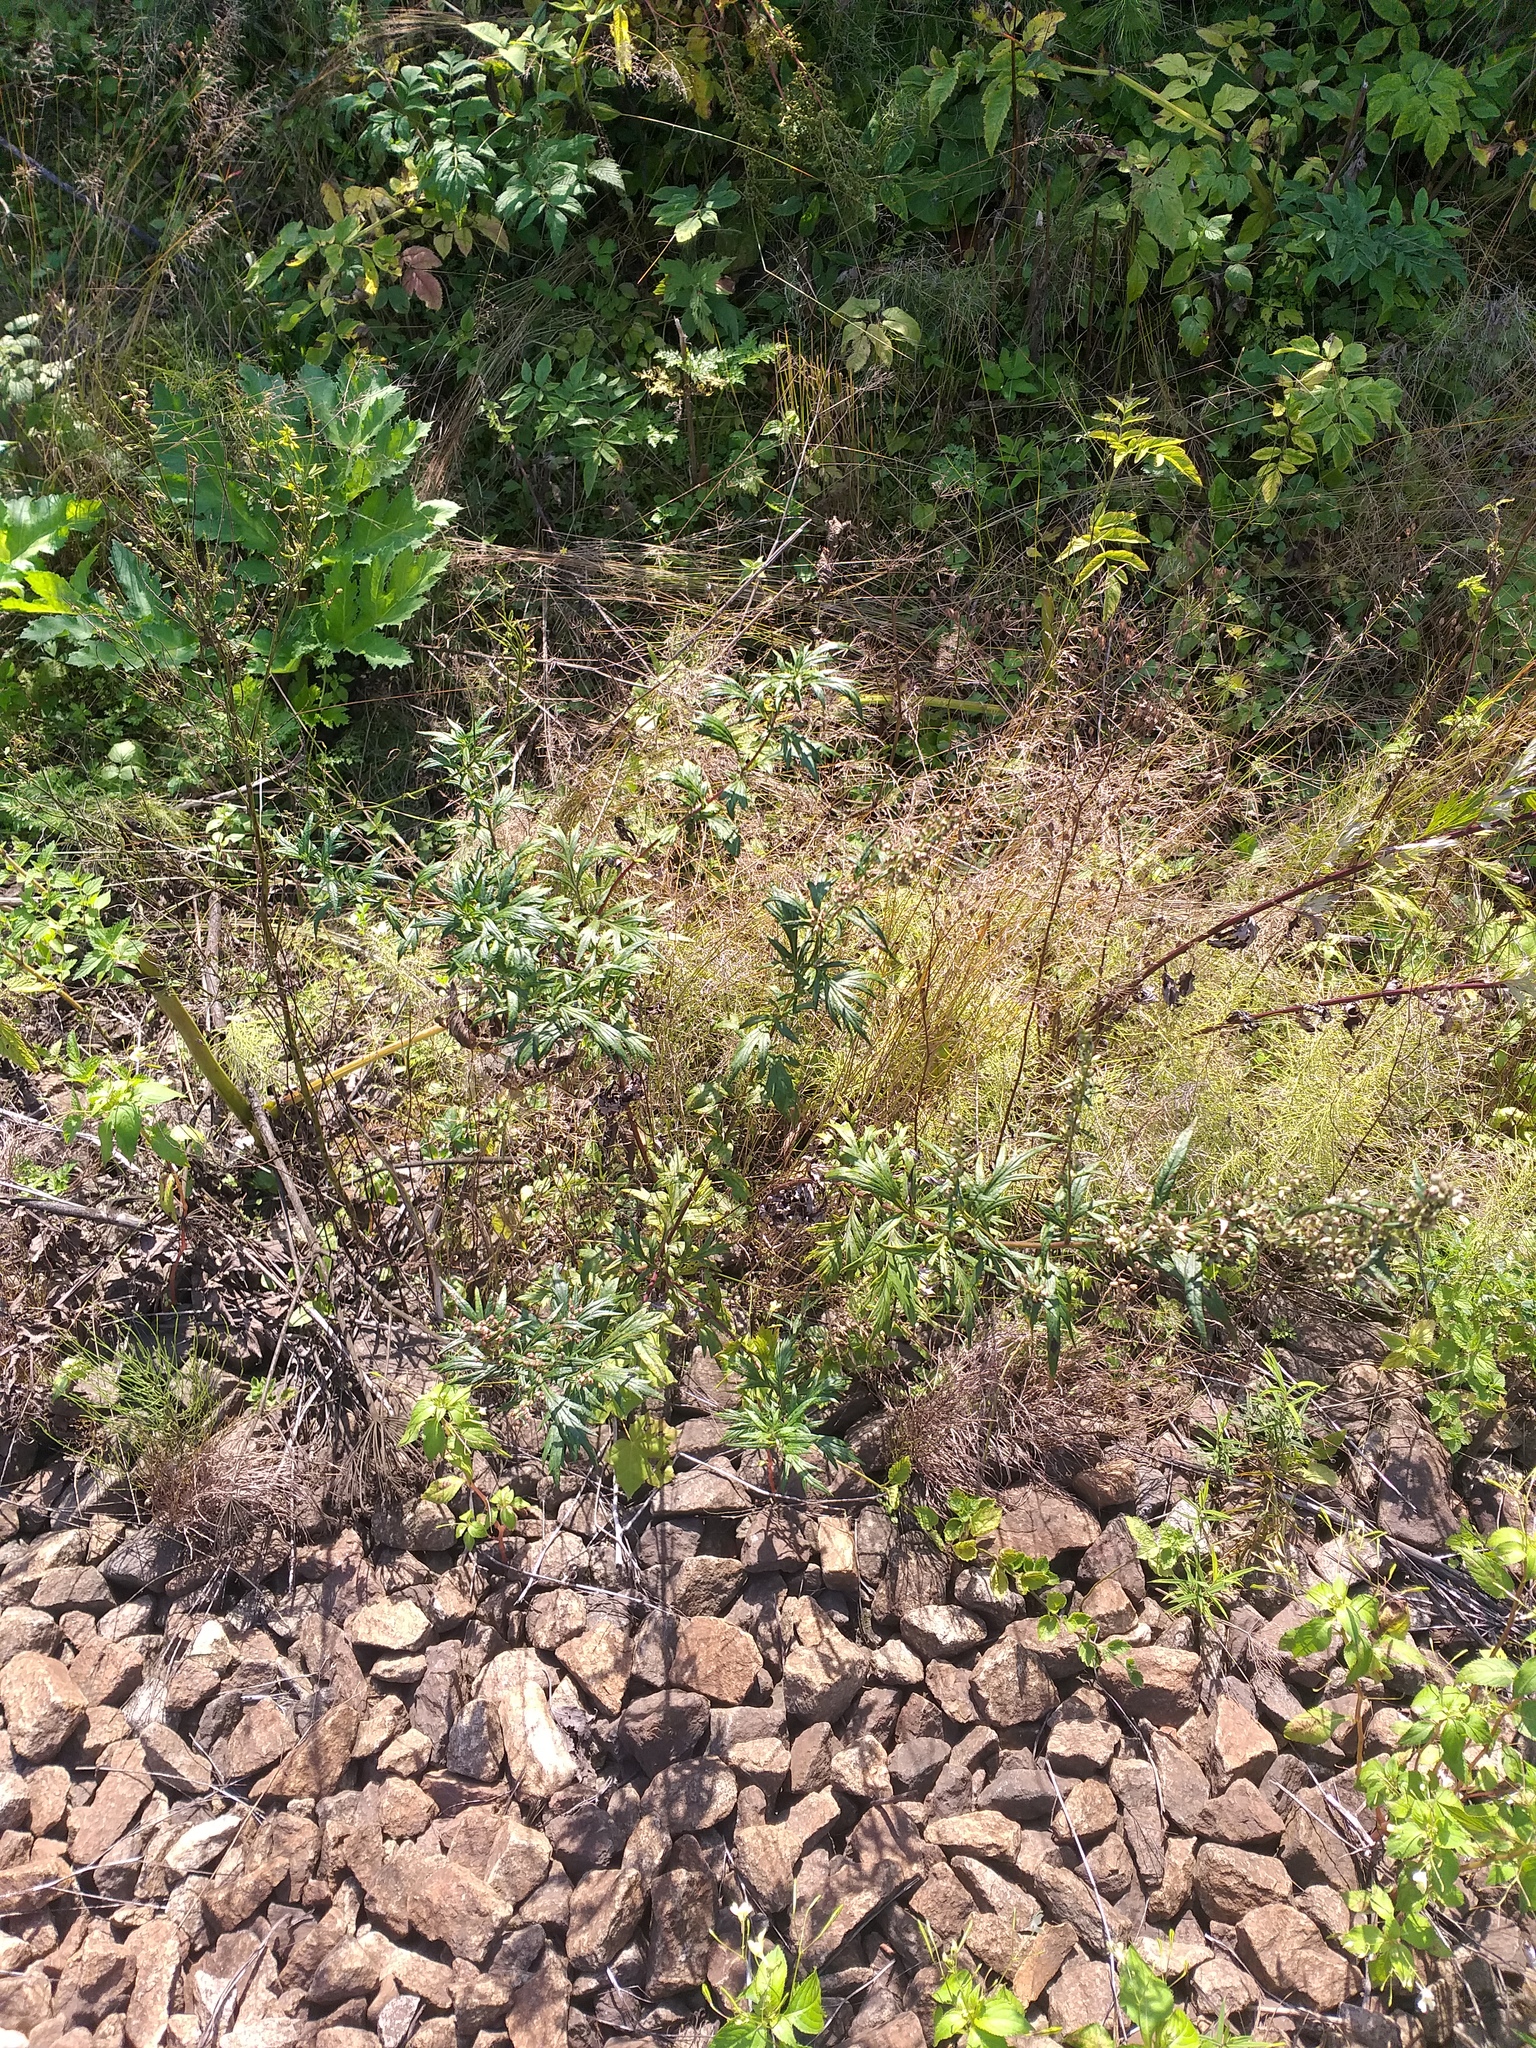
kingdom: Plantae
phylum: Tracheophyta
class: Magnoliopsida
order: Asterales
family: Asteraceae
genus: Artemisia
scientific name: Artemisia vulgaris
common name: Mugwort
